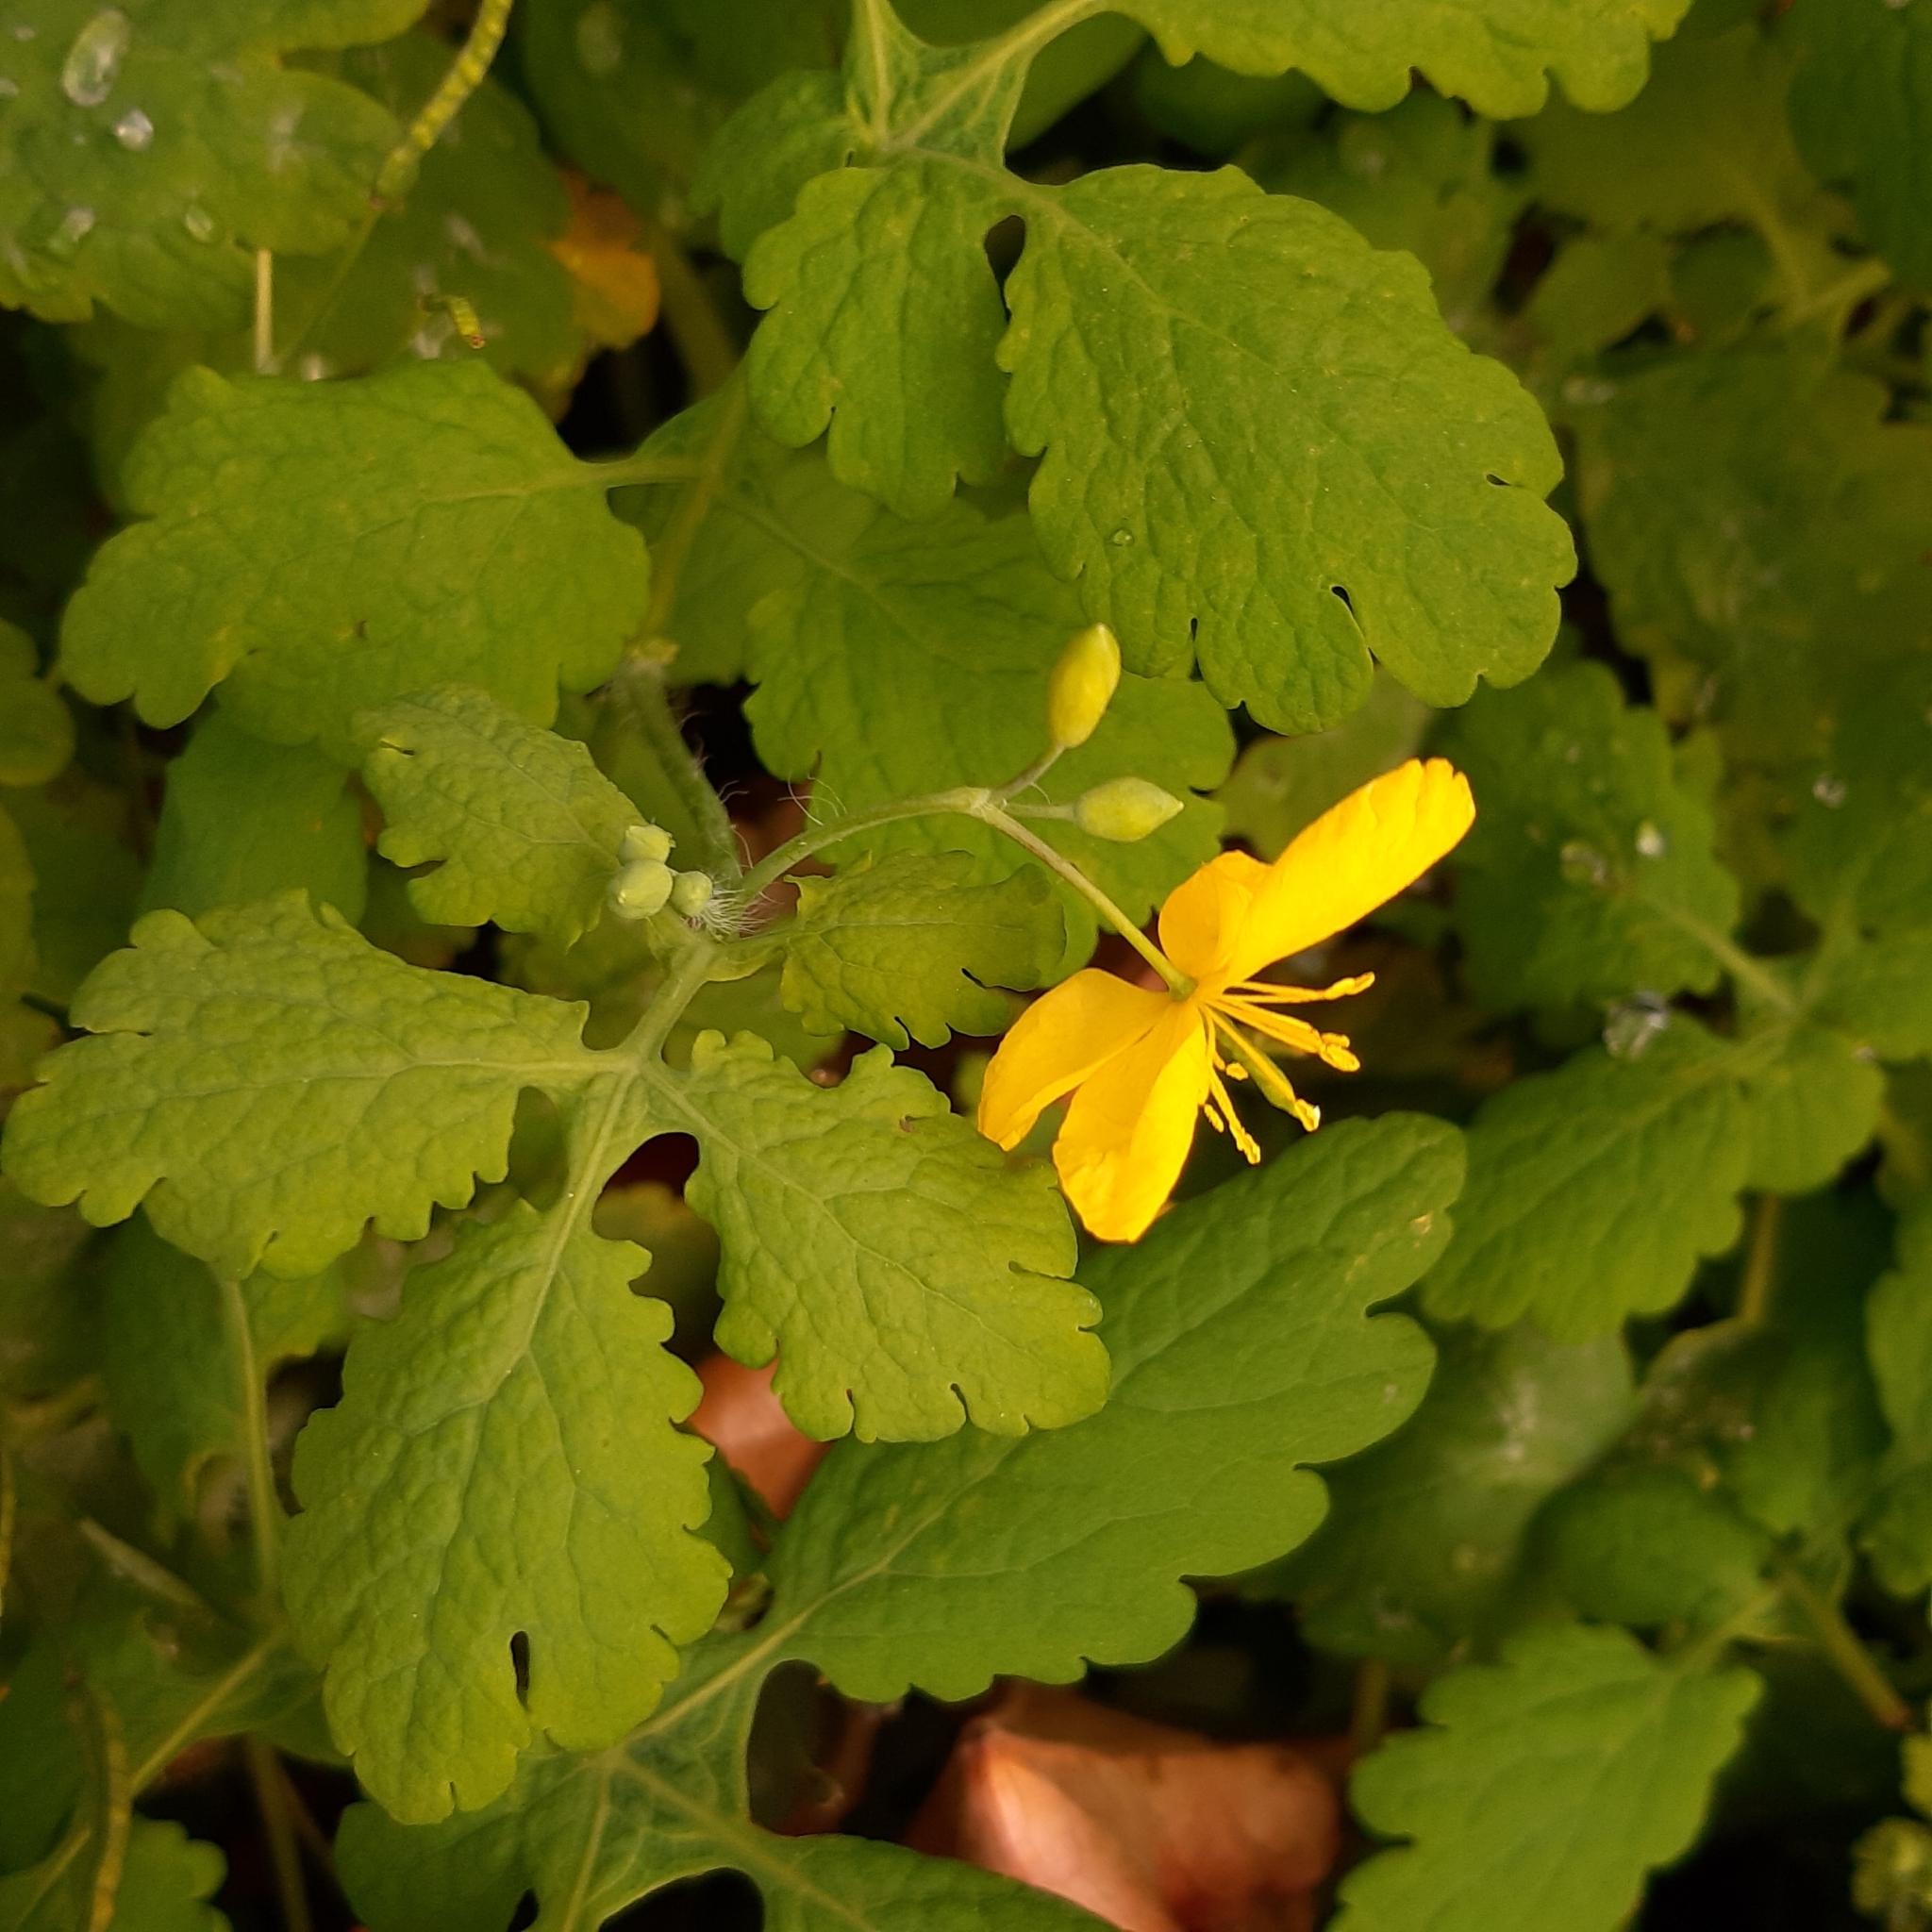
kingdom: Plantae
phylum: Tracheophyta
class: Magnoliopsida
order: Ranunculales
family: Papaveraceae
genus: Chelidonium
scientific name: Chelidonium majus
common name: Greater celandine
